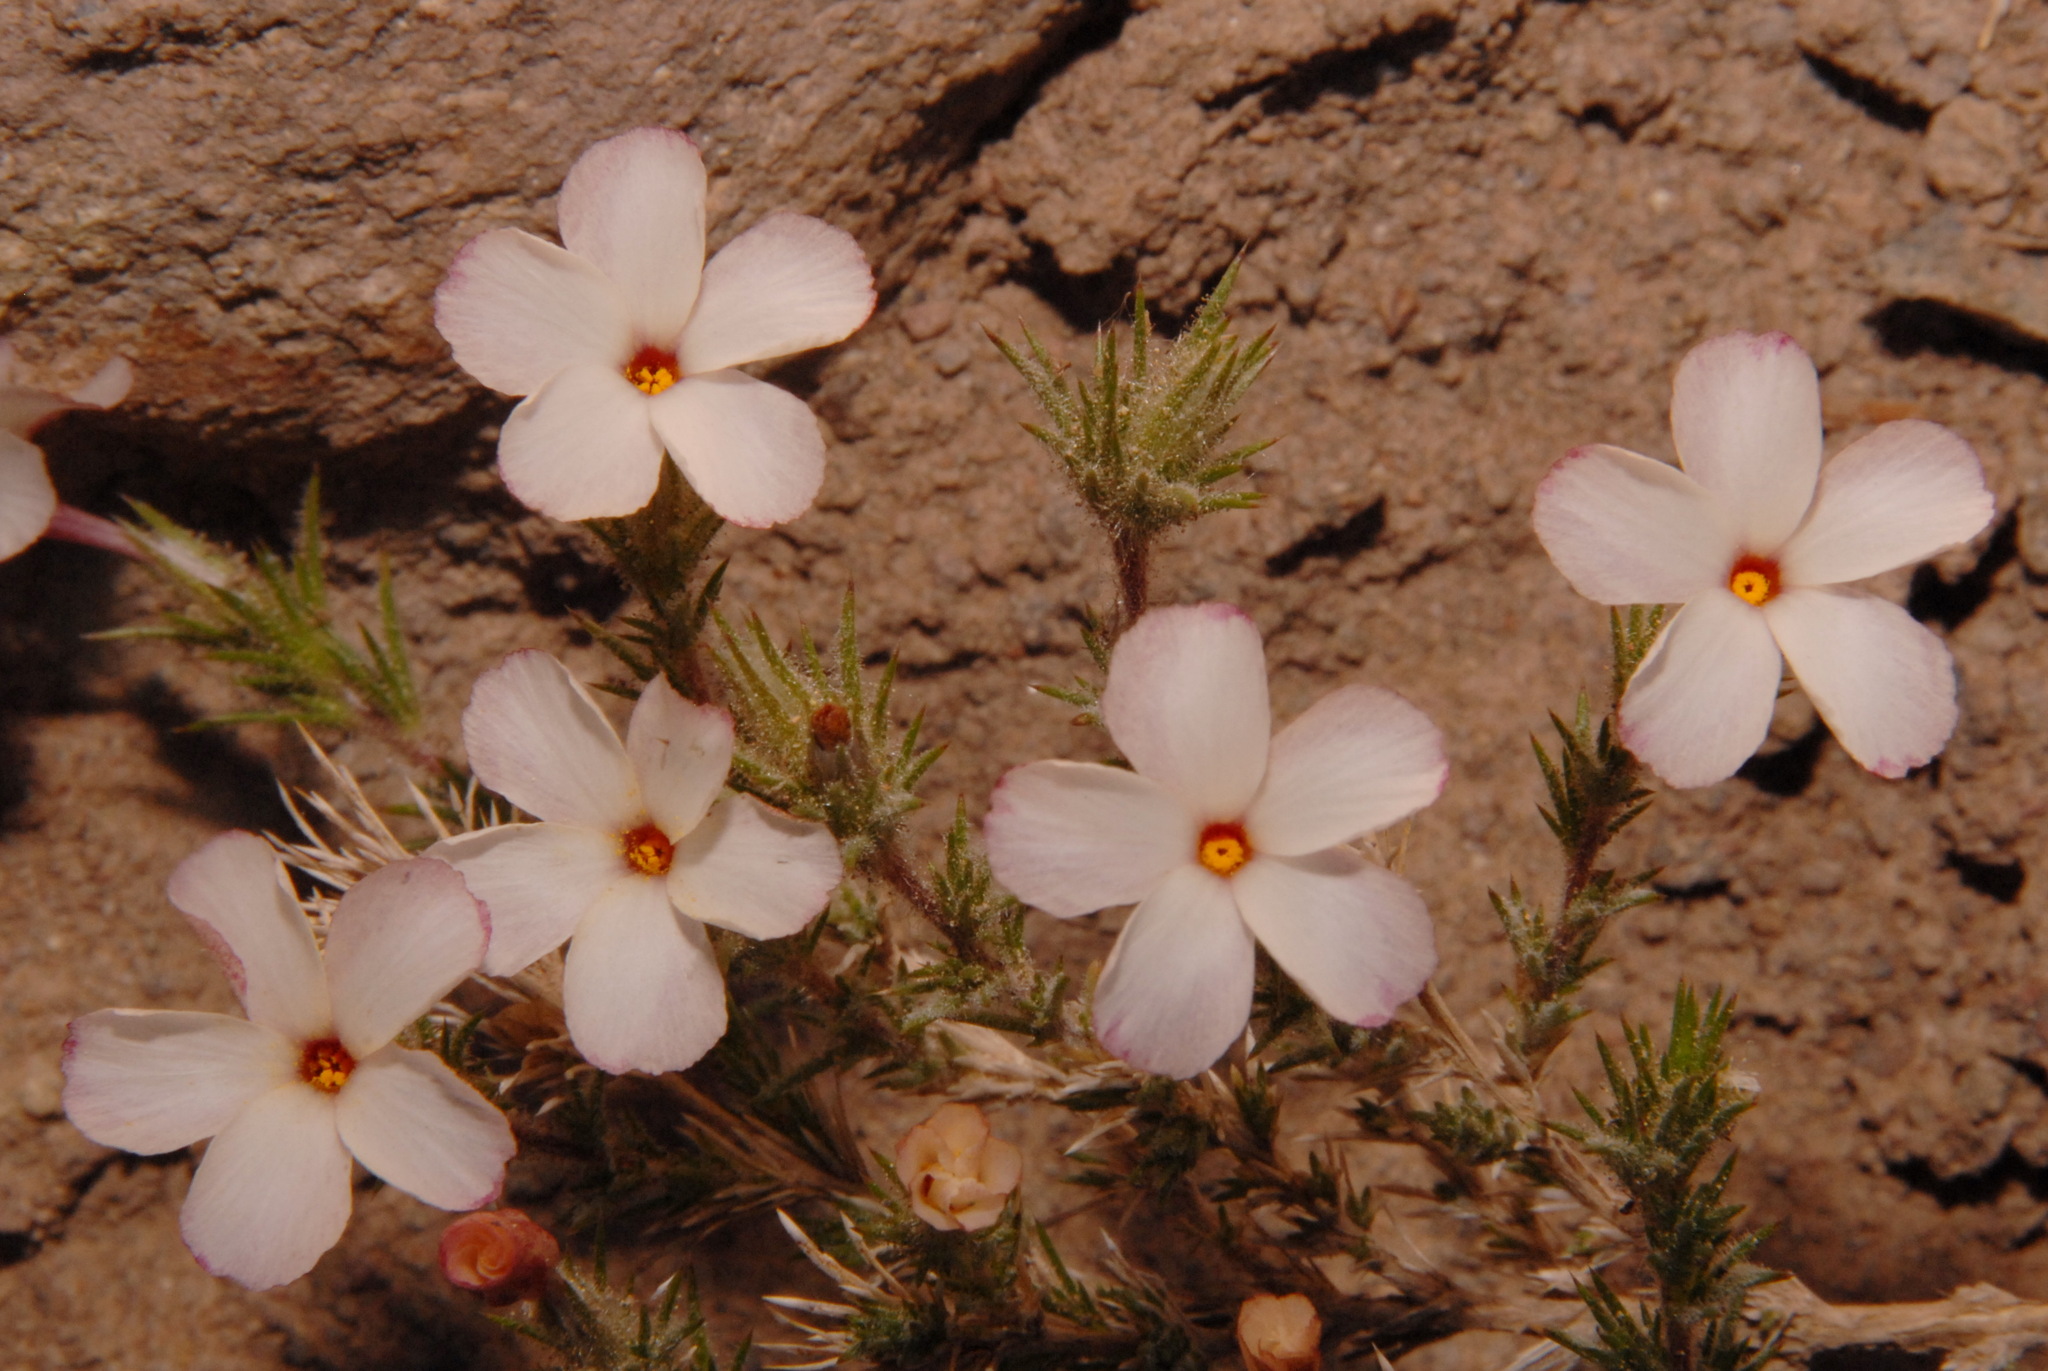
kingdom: Plantae
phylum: Tracheophyta
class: Magnoliopsida
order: Ericales
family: Polemoniaceae
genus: Linanthus
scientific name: Linanthus pungens
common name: Granite prickly phlox
